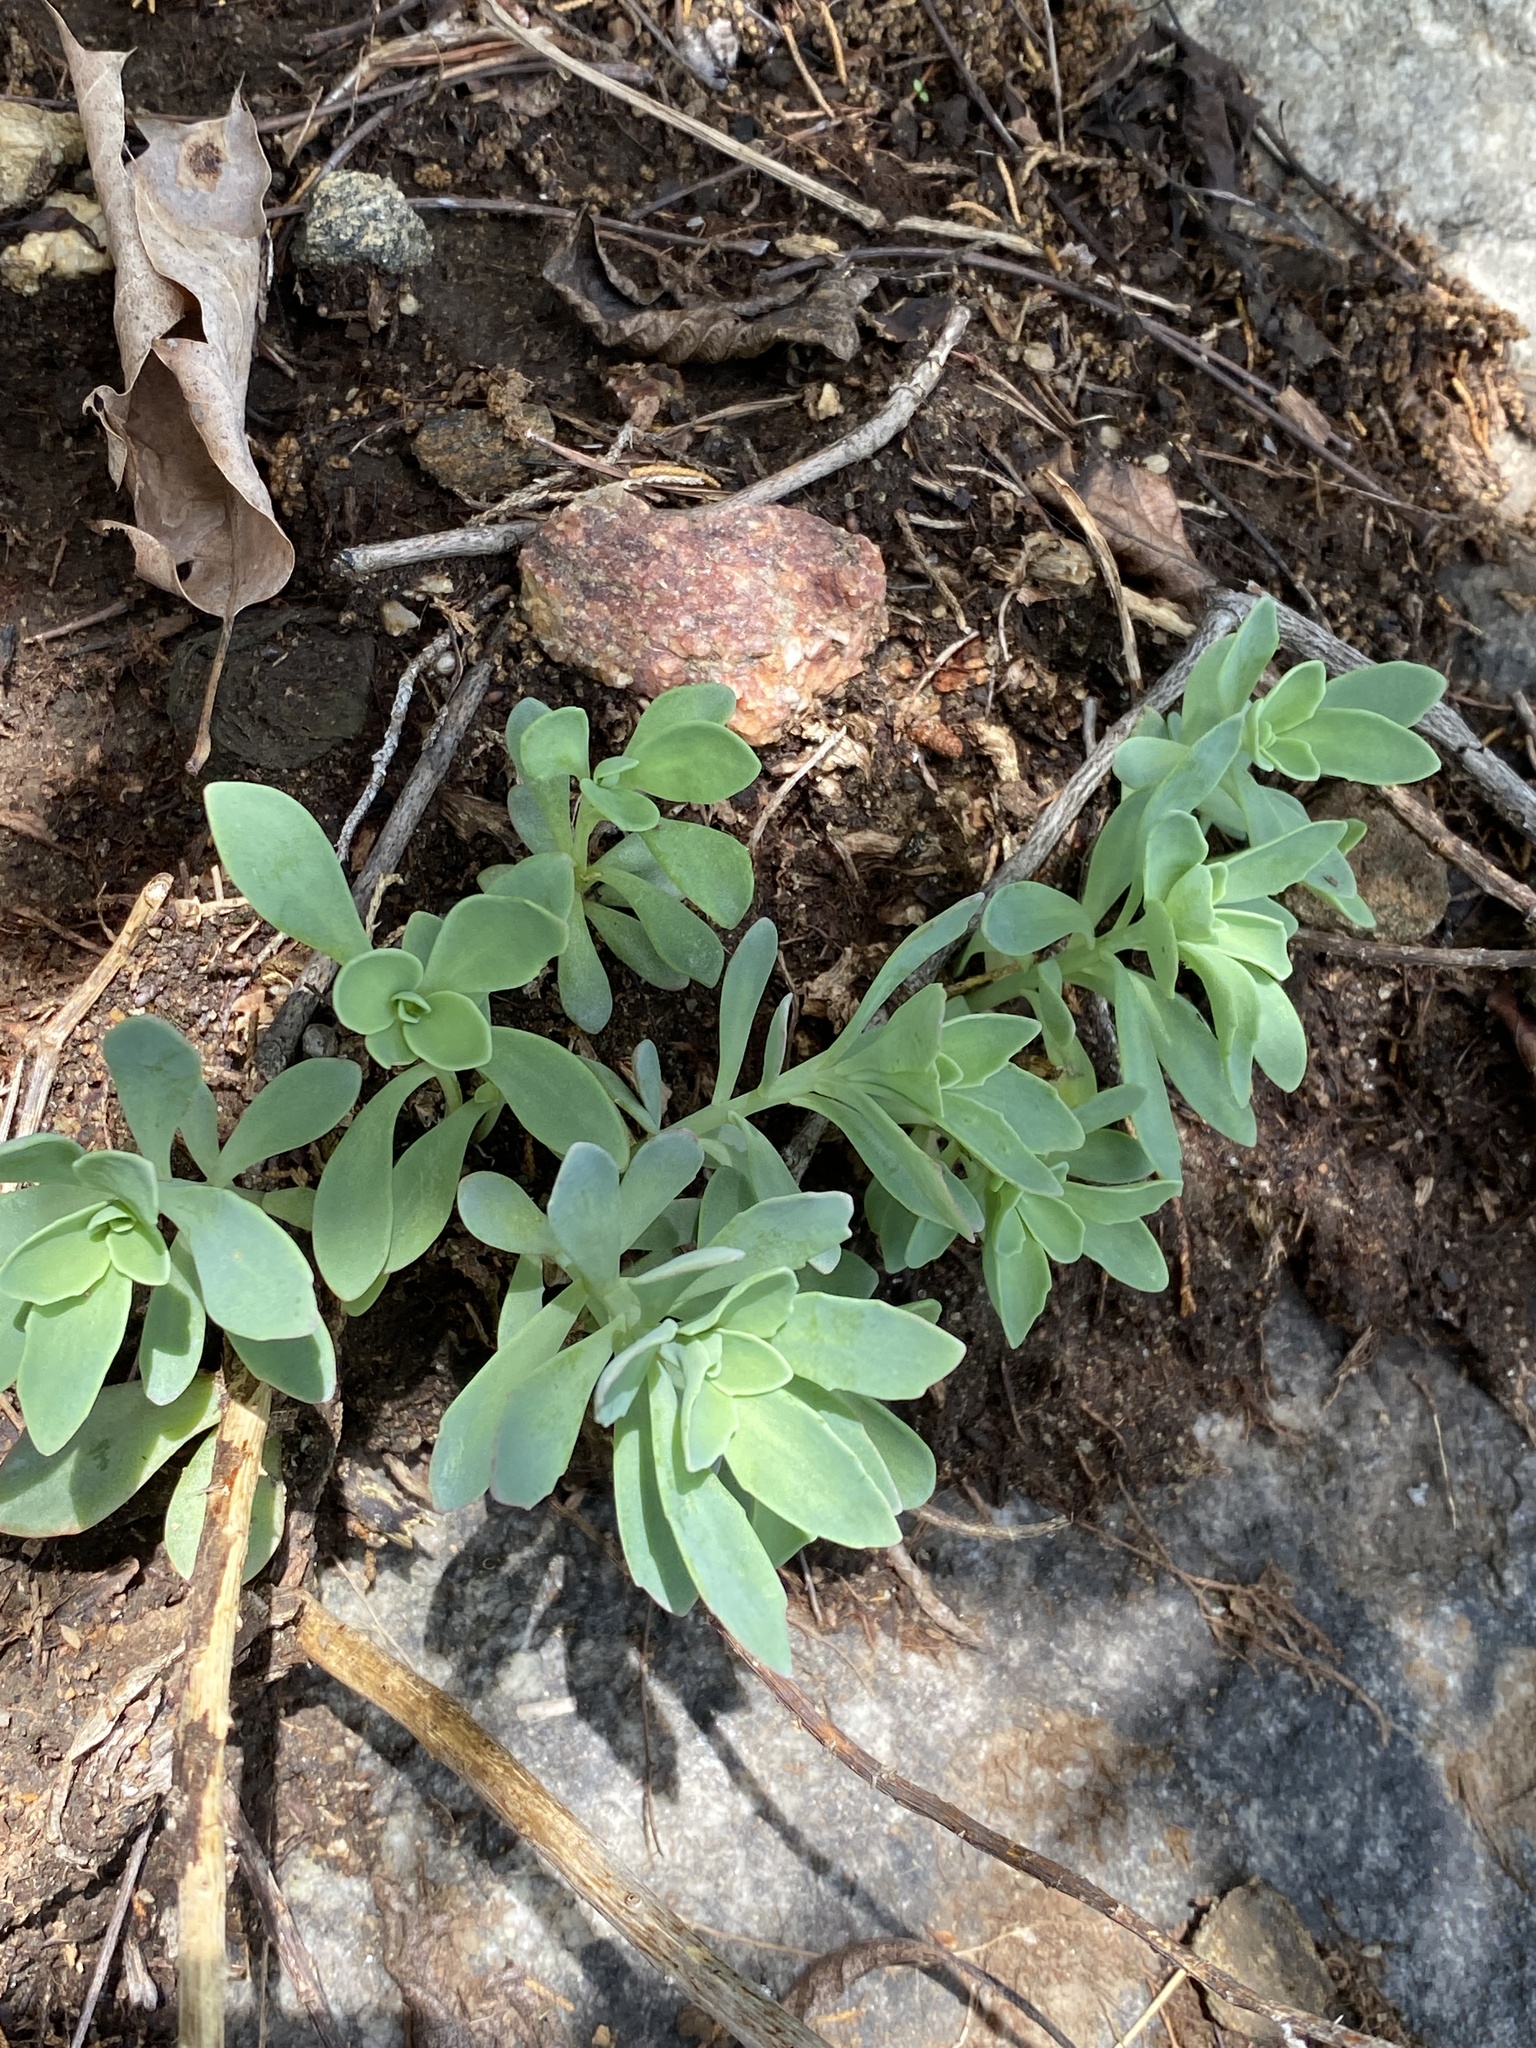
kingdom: Plantae
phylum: Tracheophyta
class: Magnoliopsida
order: Saxifragales
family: Crassulaceae
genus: Hylotelephium
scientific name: Hylotelephium telephioides
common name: Allegheny stonecrop
